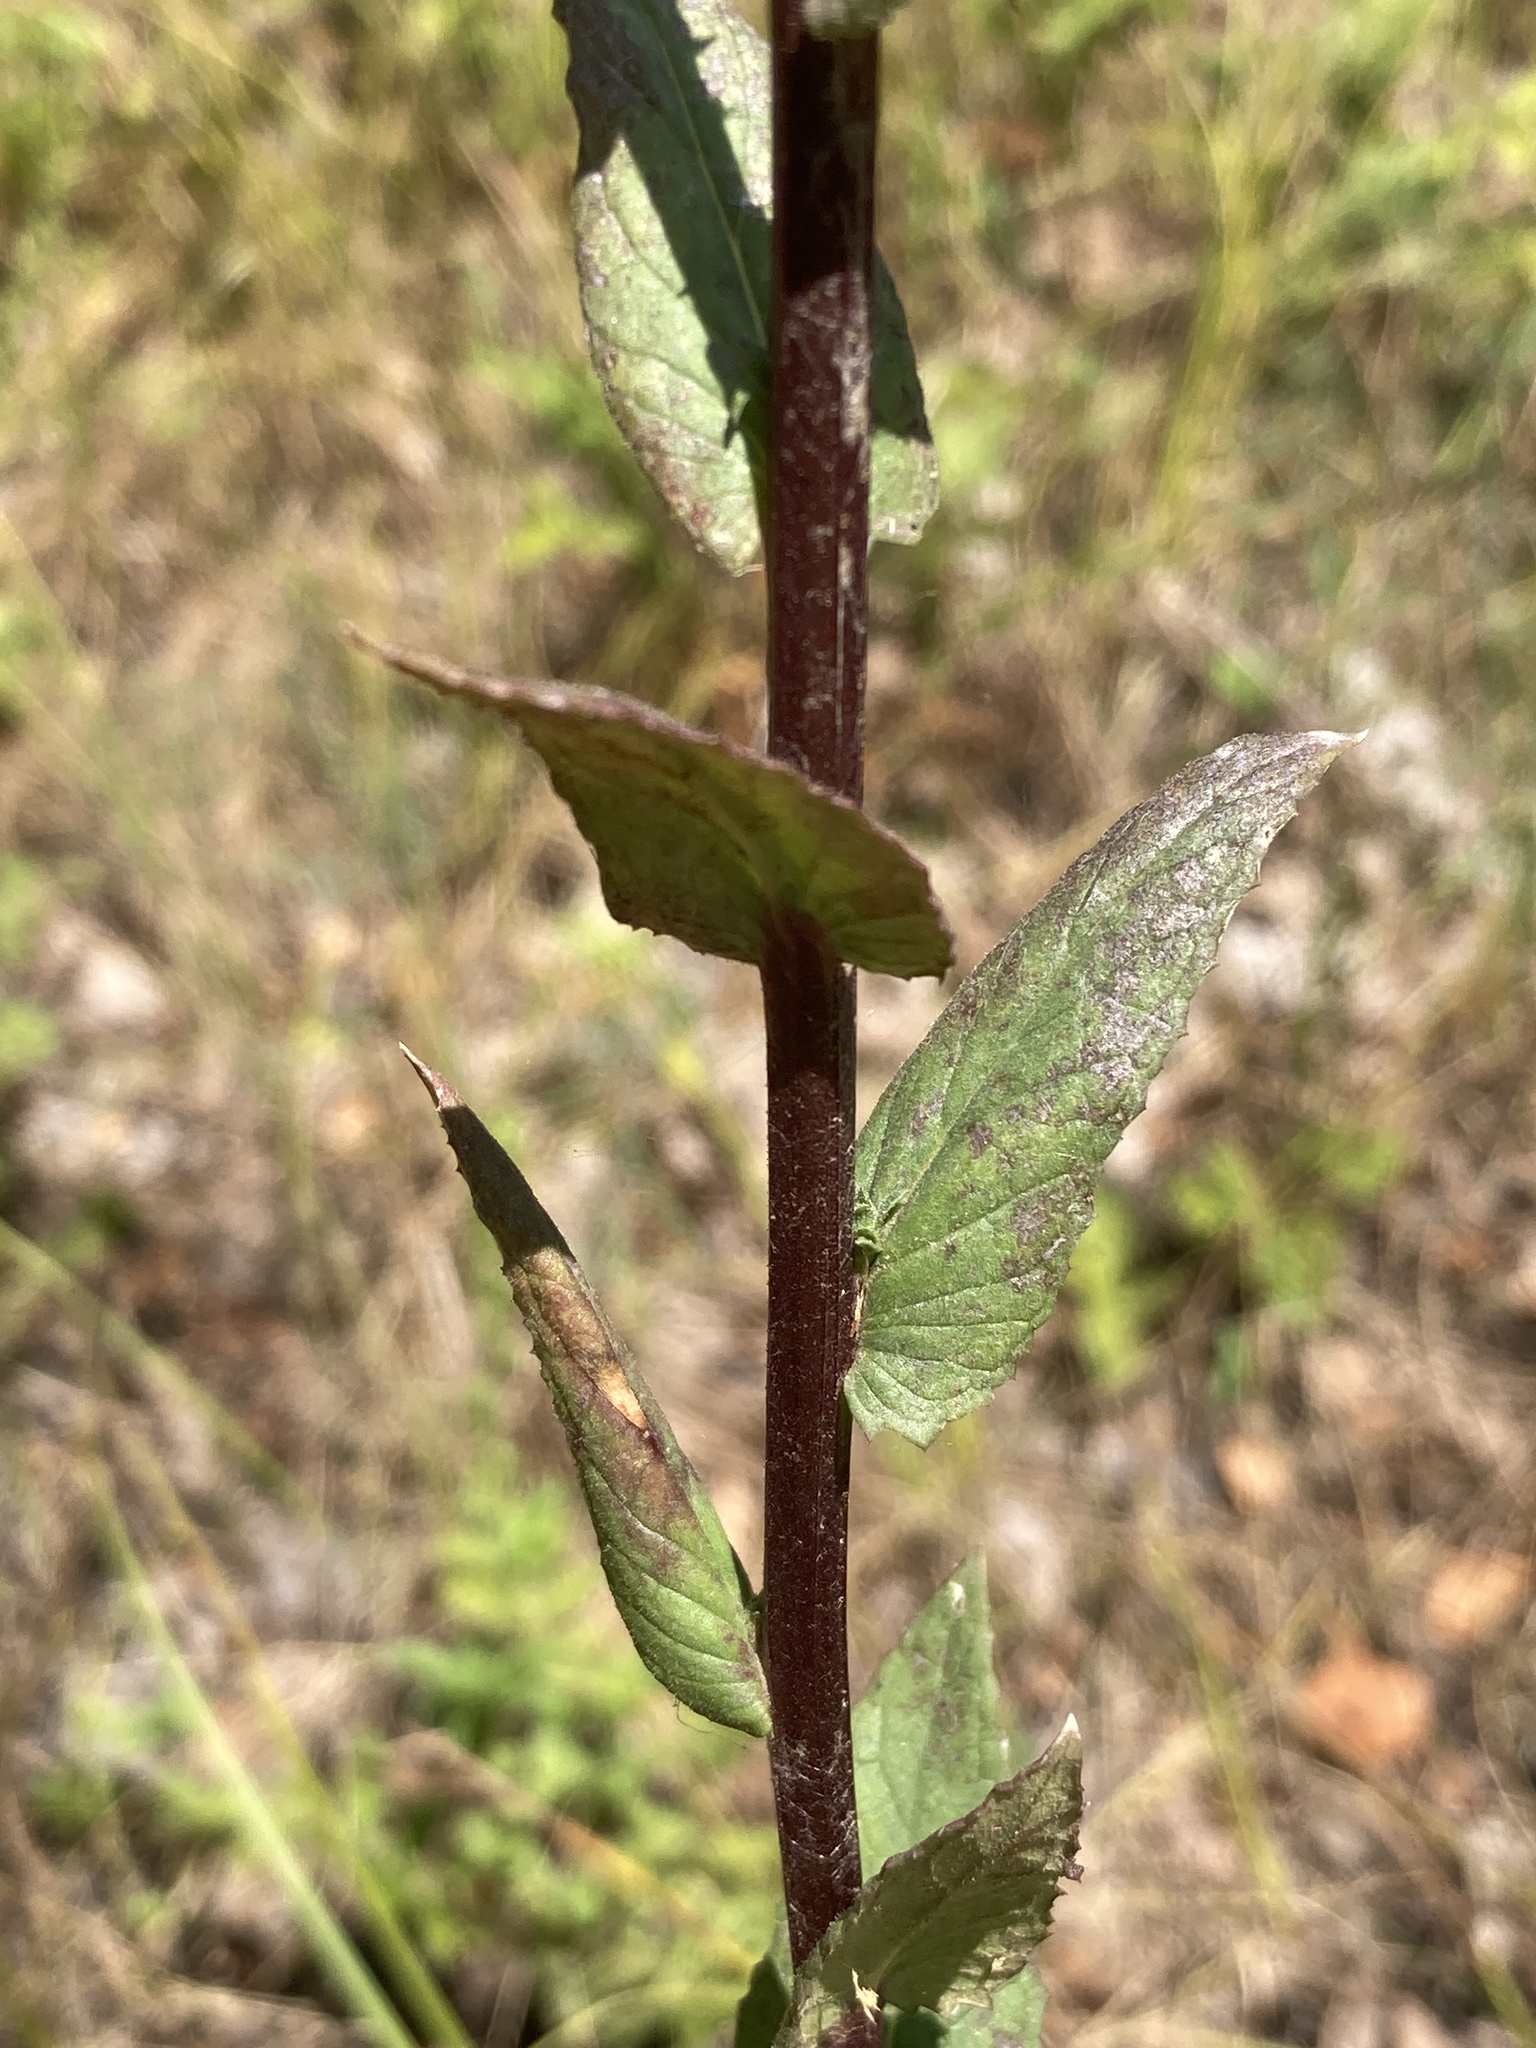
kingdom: Plantae
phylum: Tracheophyta
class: Magnoliopsida
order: Lamiales
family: Scrophulariaceae
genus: Verbascum
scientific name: Verbascum blattaria
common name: Moth mullein
